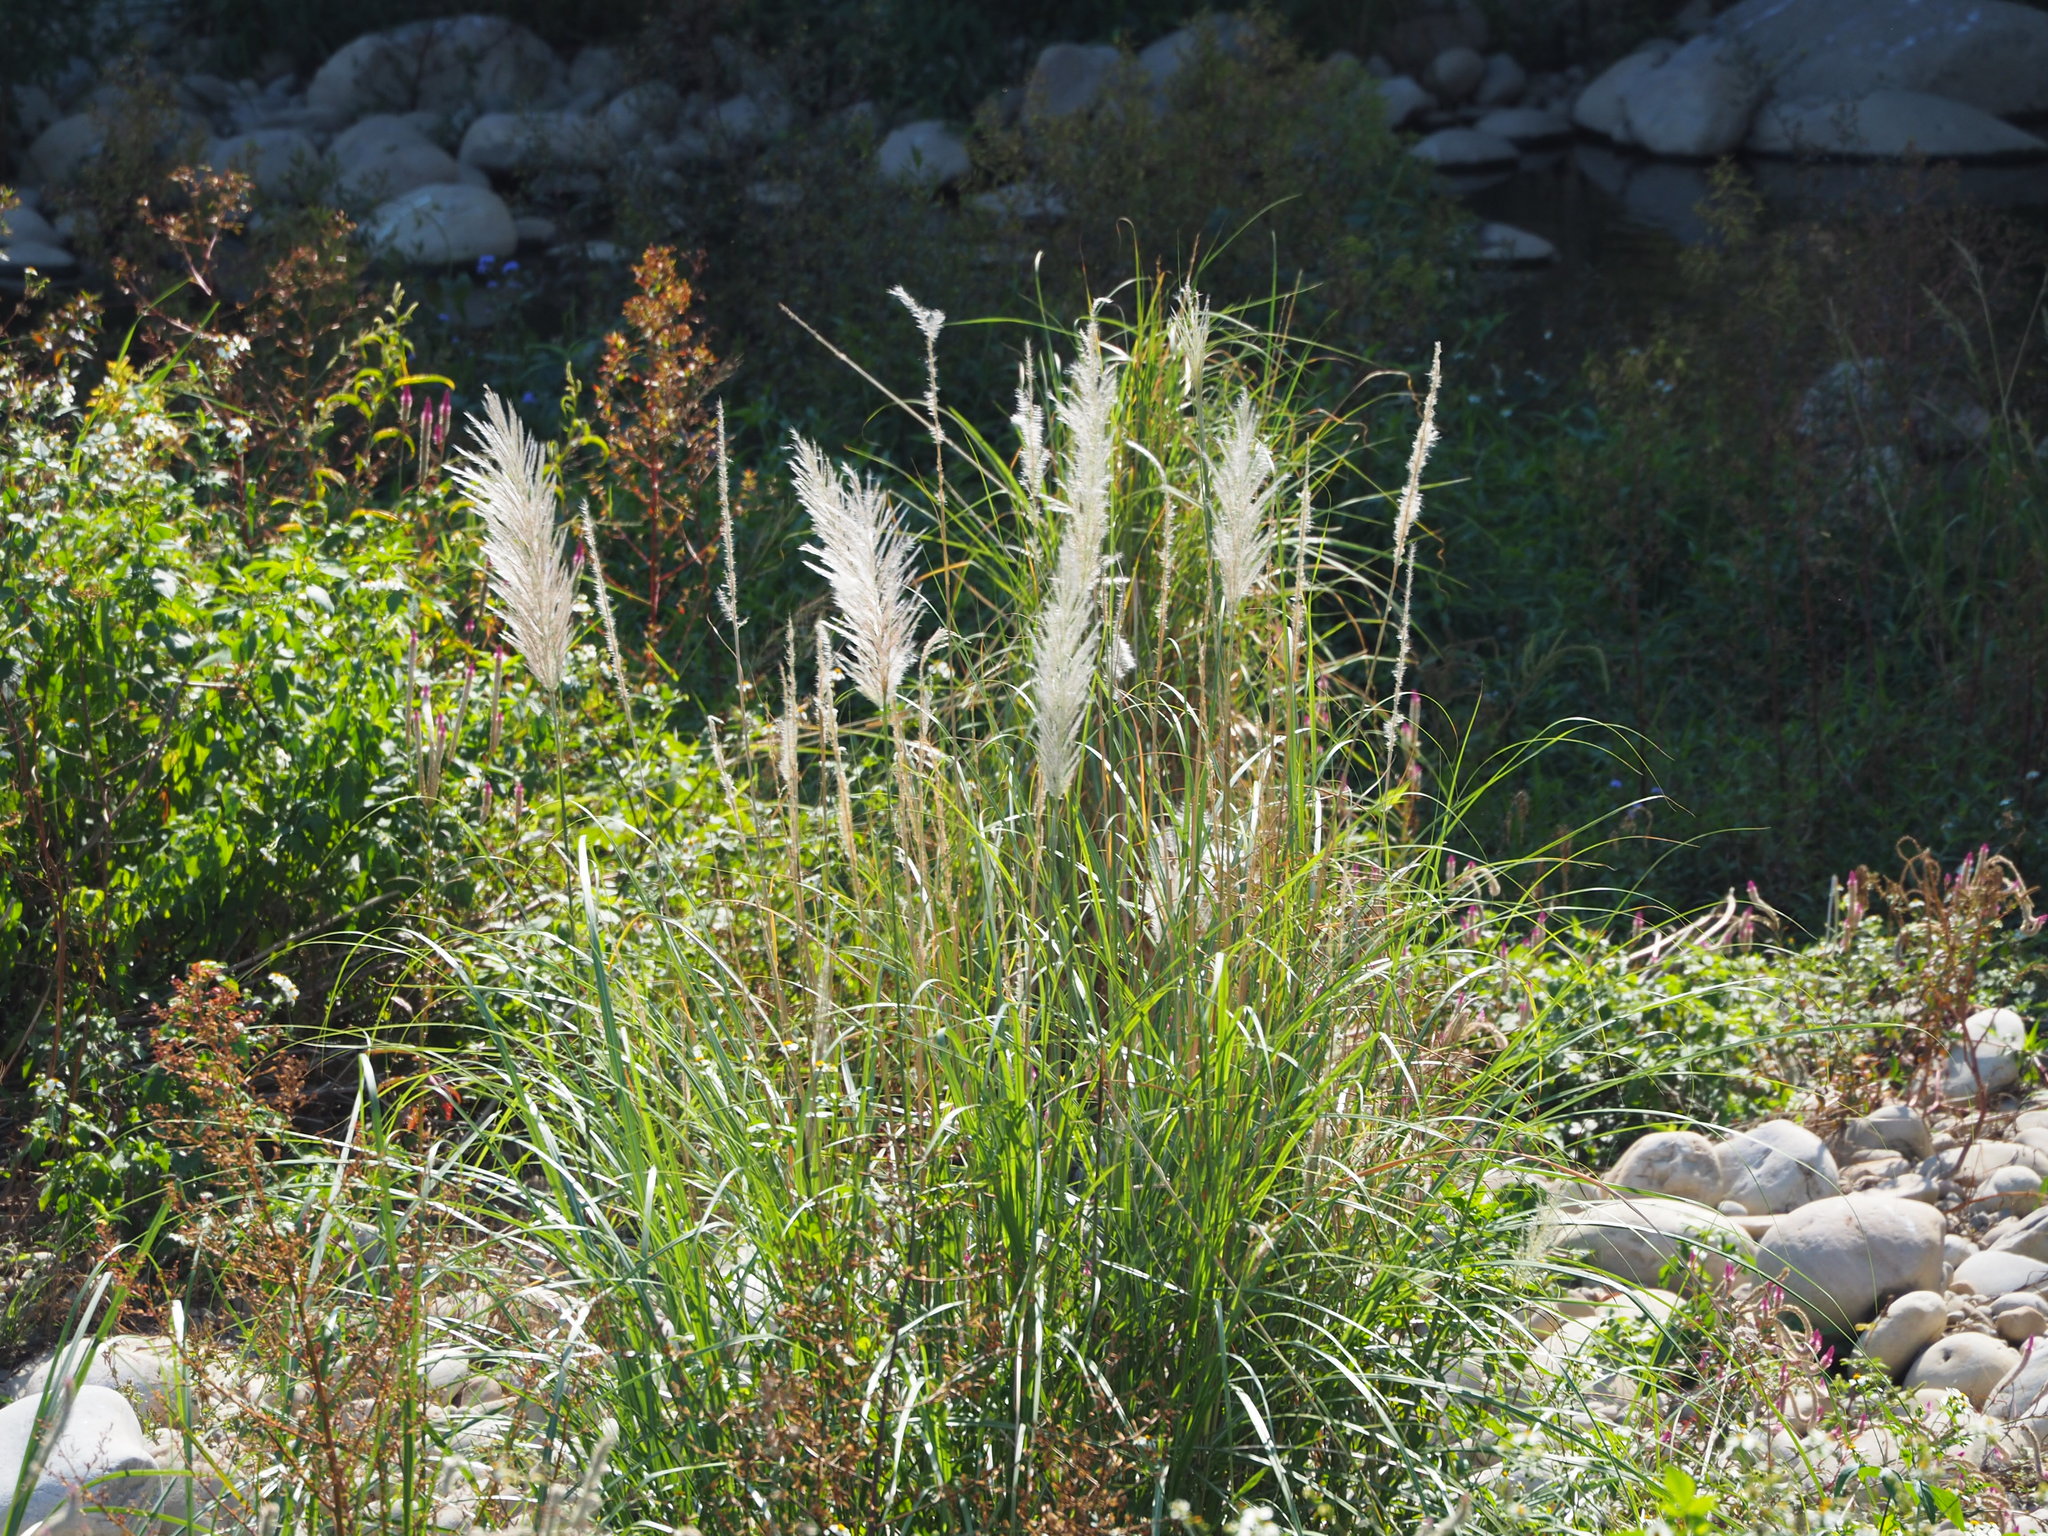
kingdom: Plantae
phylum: Tracheophyta
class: Liliopsida
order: Poales
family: Poaceae
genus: Saccharum
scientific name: Saccharum spontaneum
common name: Wild sugarcane
